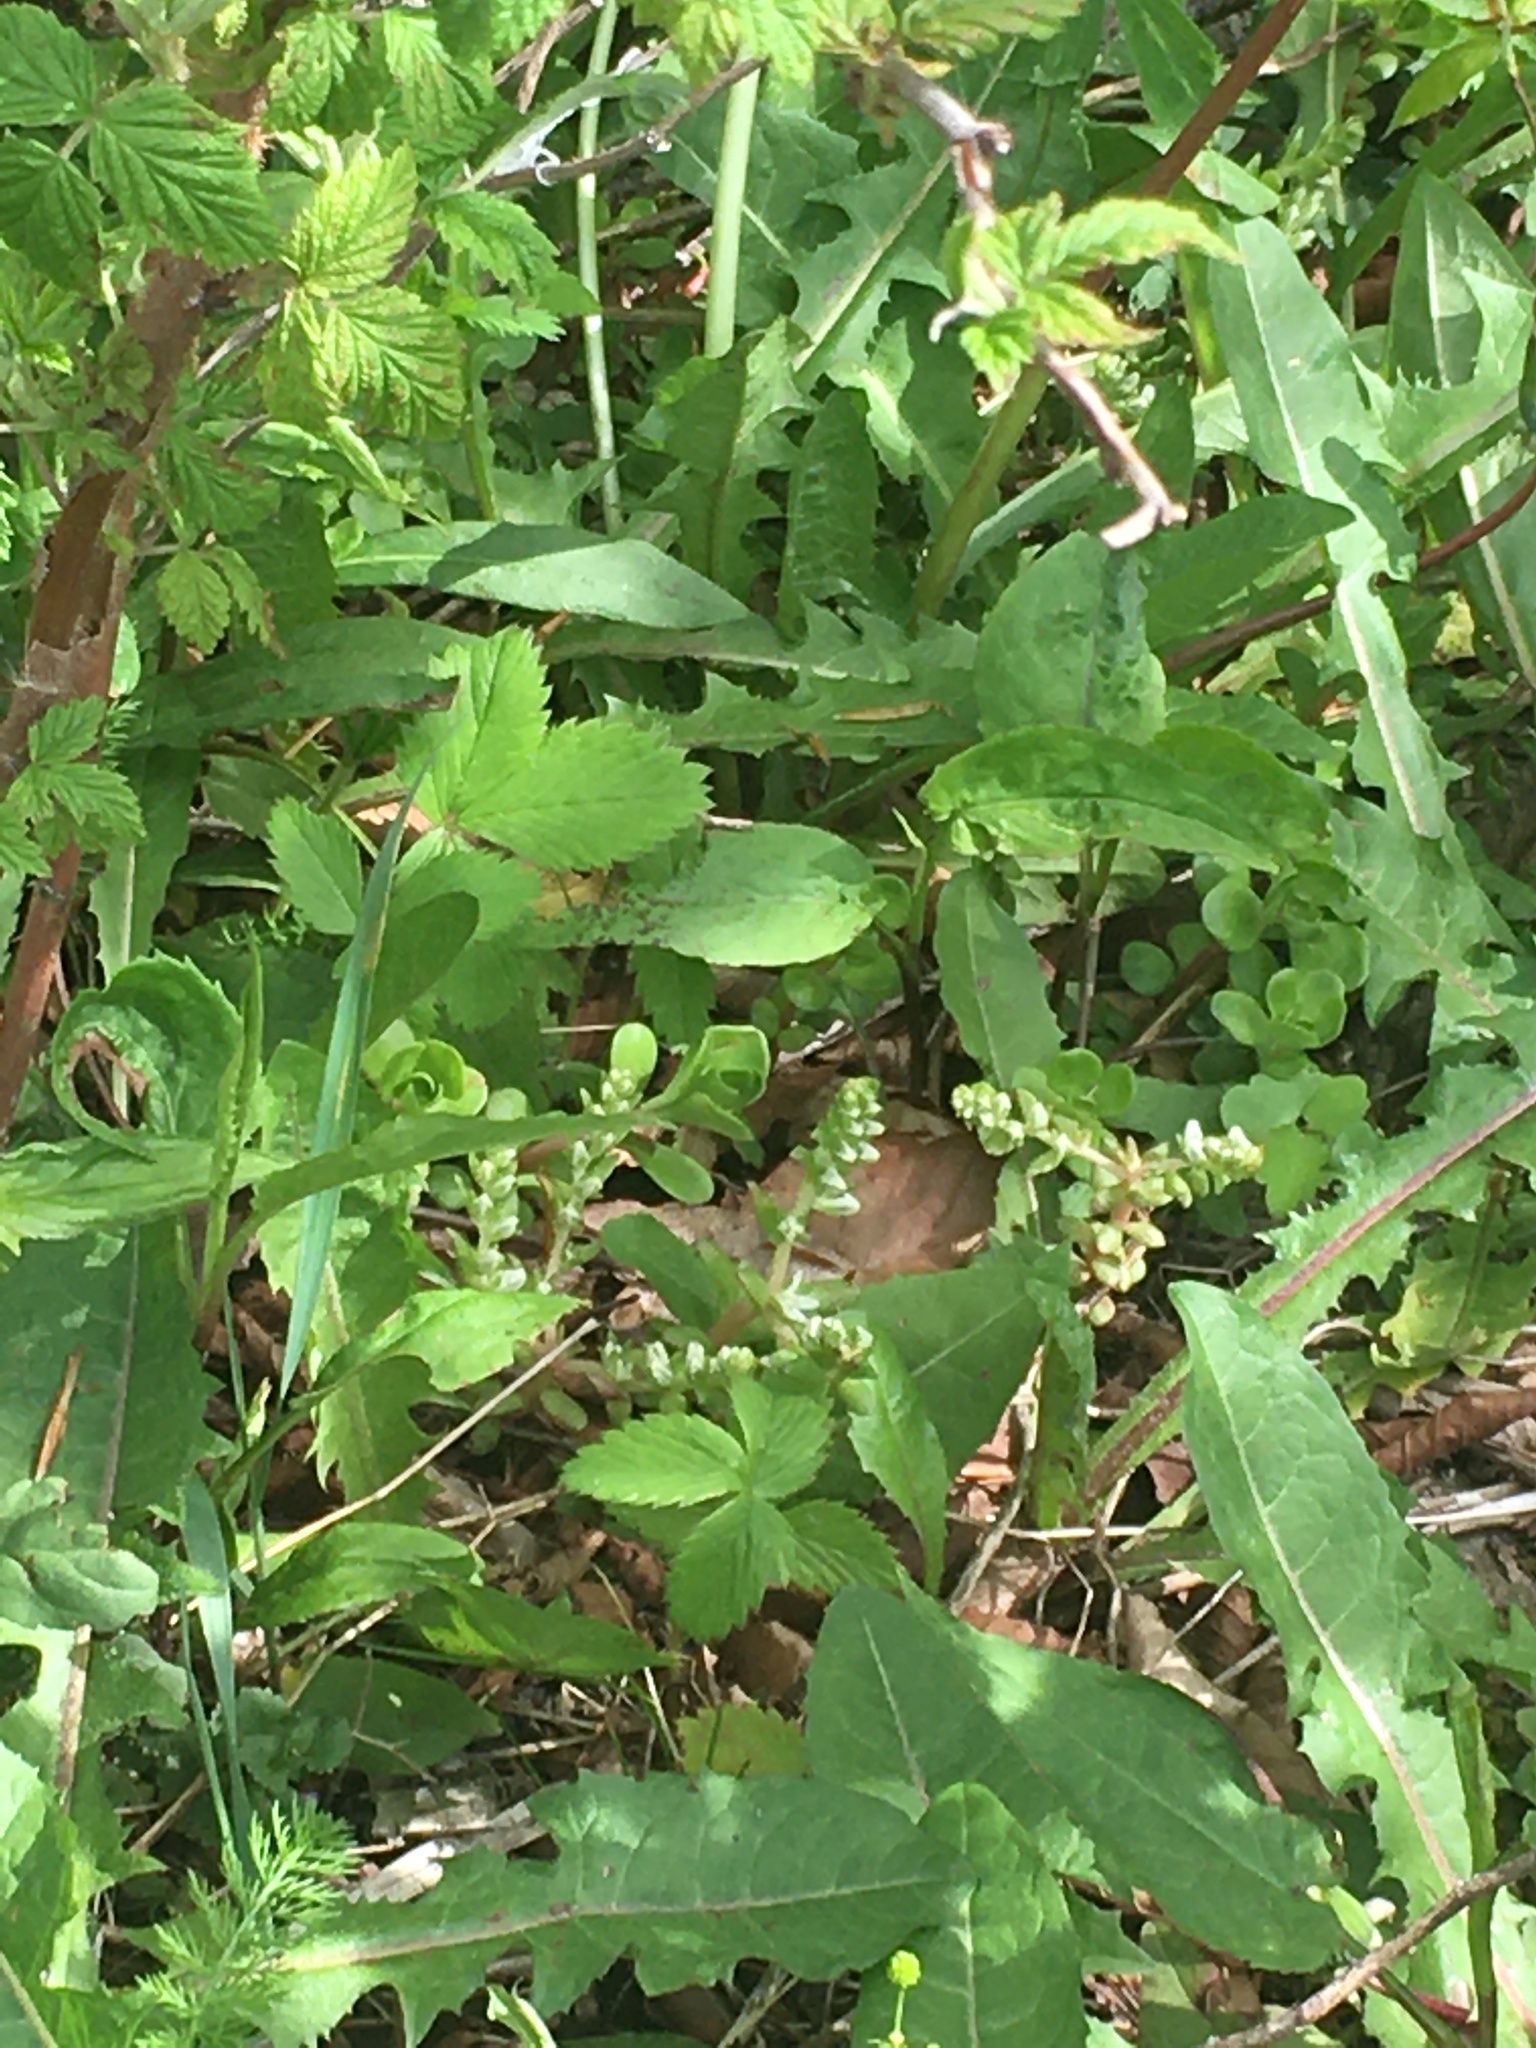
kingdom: Plantae
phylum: Tracheophyta
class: Magnoliopsida
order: Saxifragales
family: Crassulaceae
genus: Sedum
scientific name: Sedum ternatum
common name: Wild stonecrop
